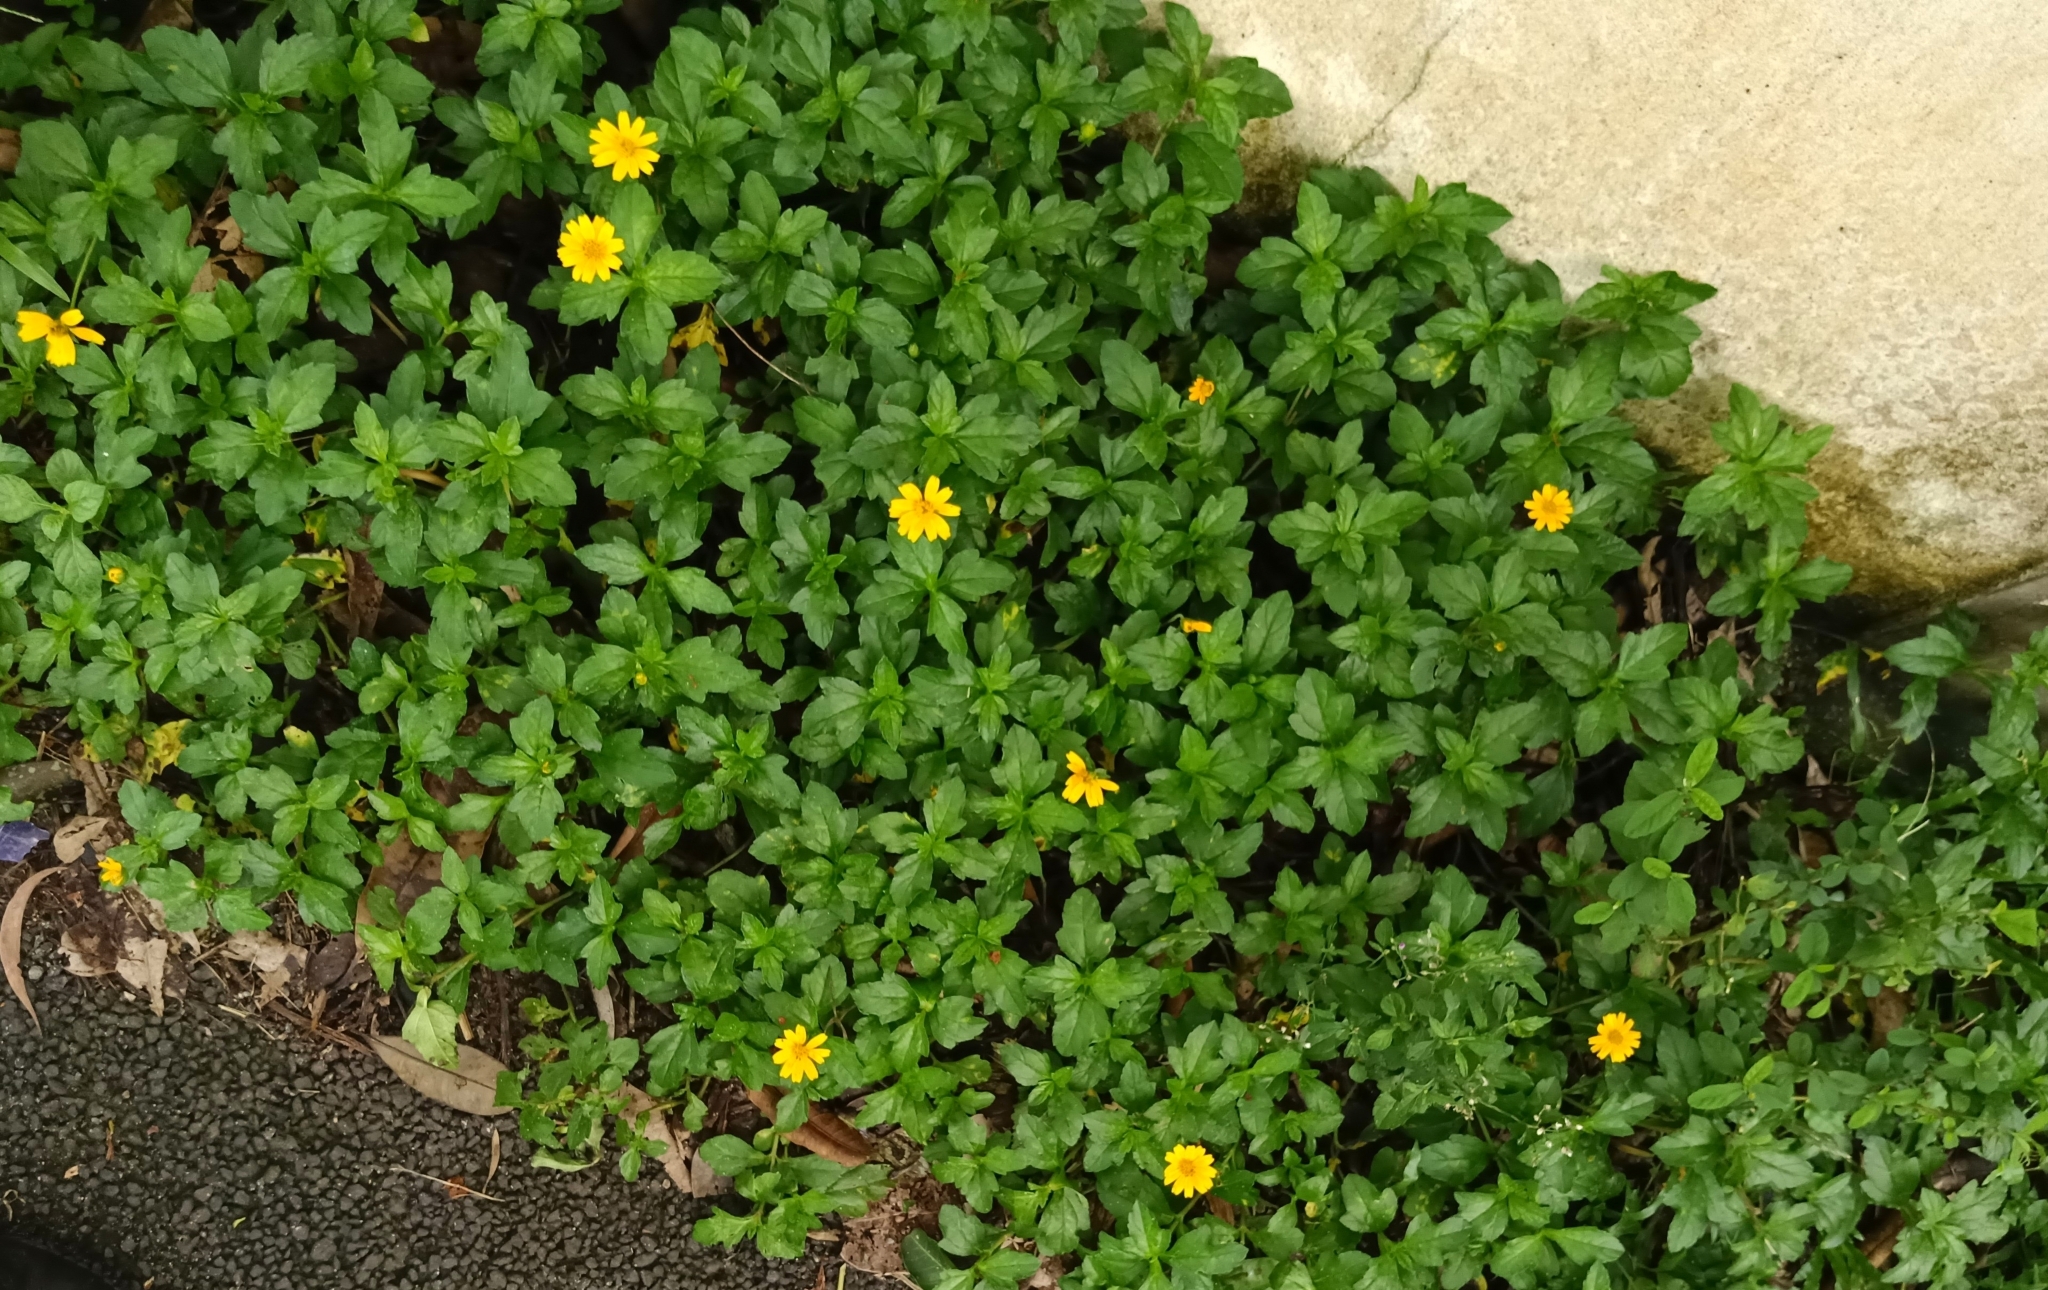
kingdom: Plantae
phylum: Tracheophyta
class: Magnoliopsida
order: Asterales
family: Asteraceae
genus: Sphagneticola
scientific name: Sphagneticola trilobata
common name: Bay biscayne creeping-oxeye
